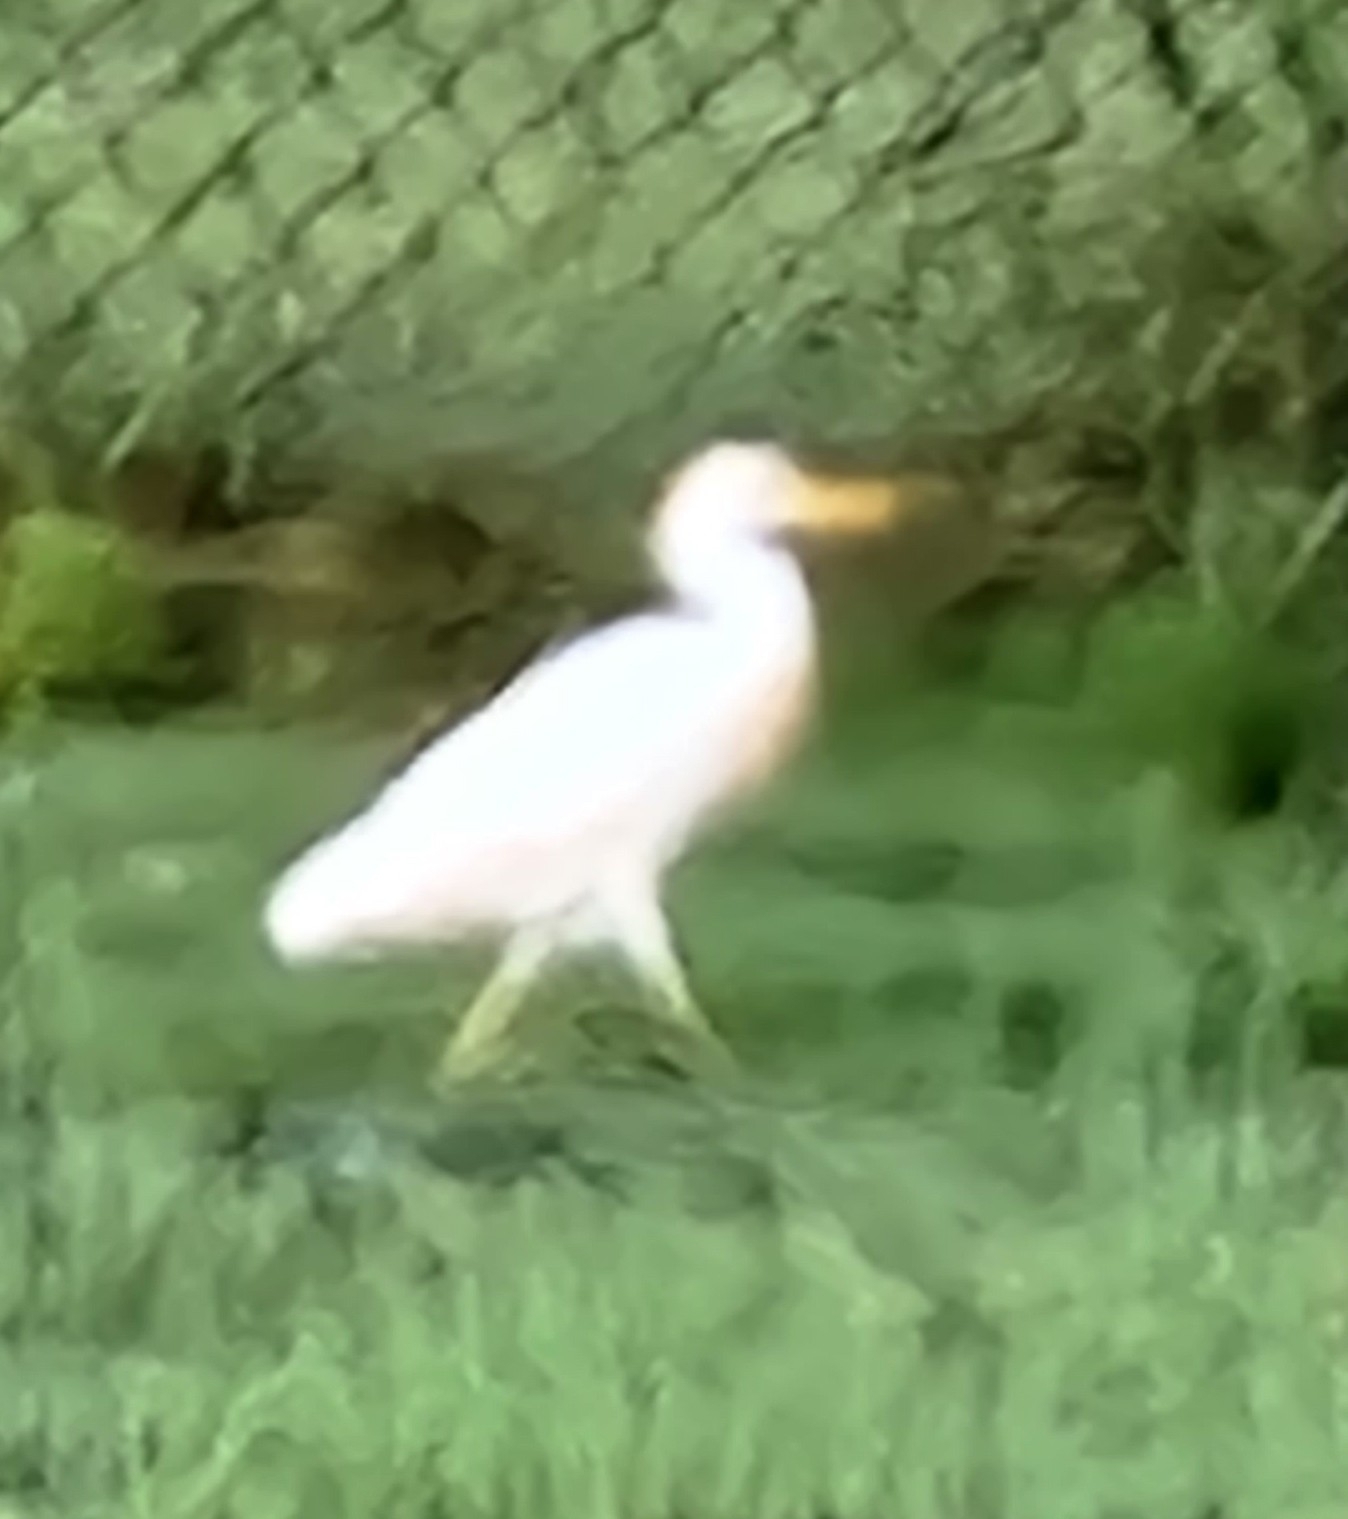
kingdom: Animalia
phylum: Chordata
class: Aves
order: Pelecaniformes
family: Ardeidae
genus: Bubulcus
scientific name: Bubulcus ibis
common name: Cattle egret
